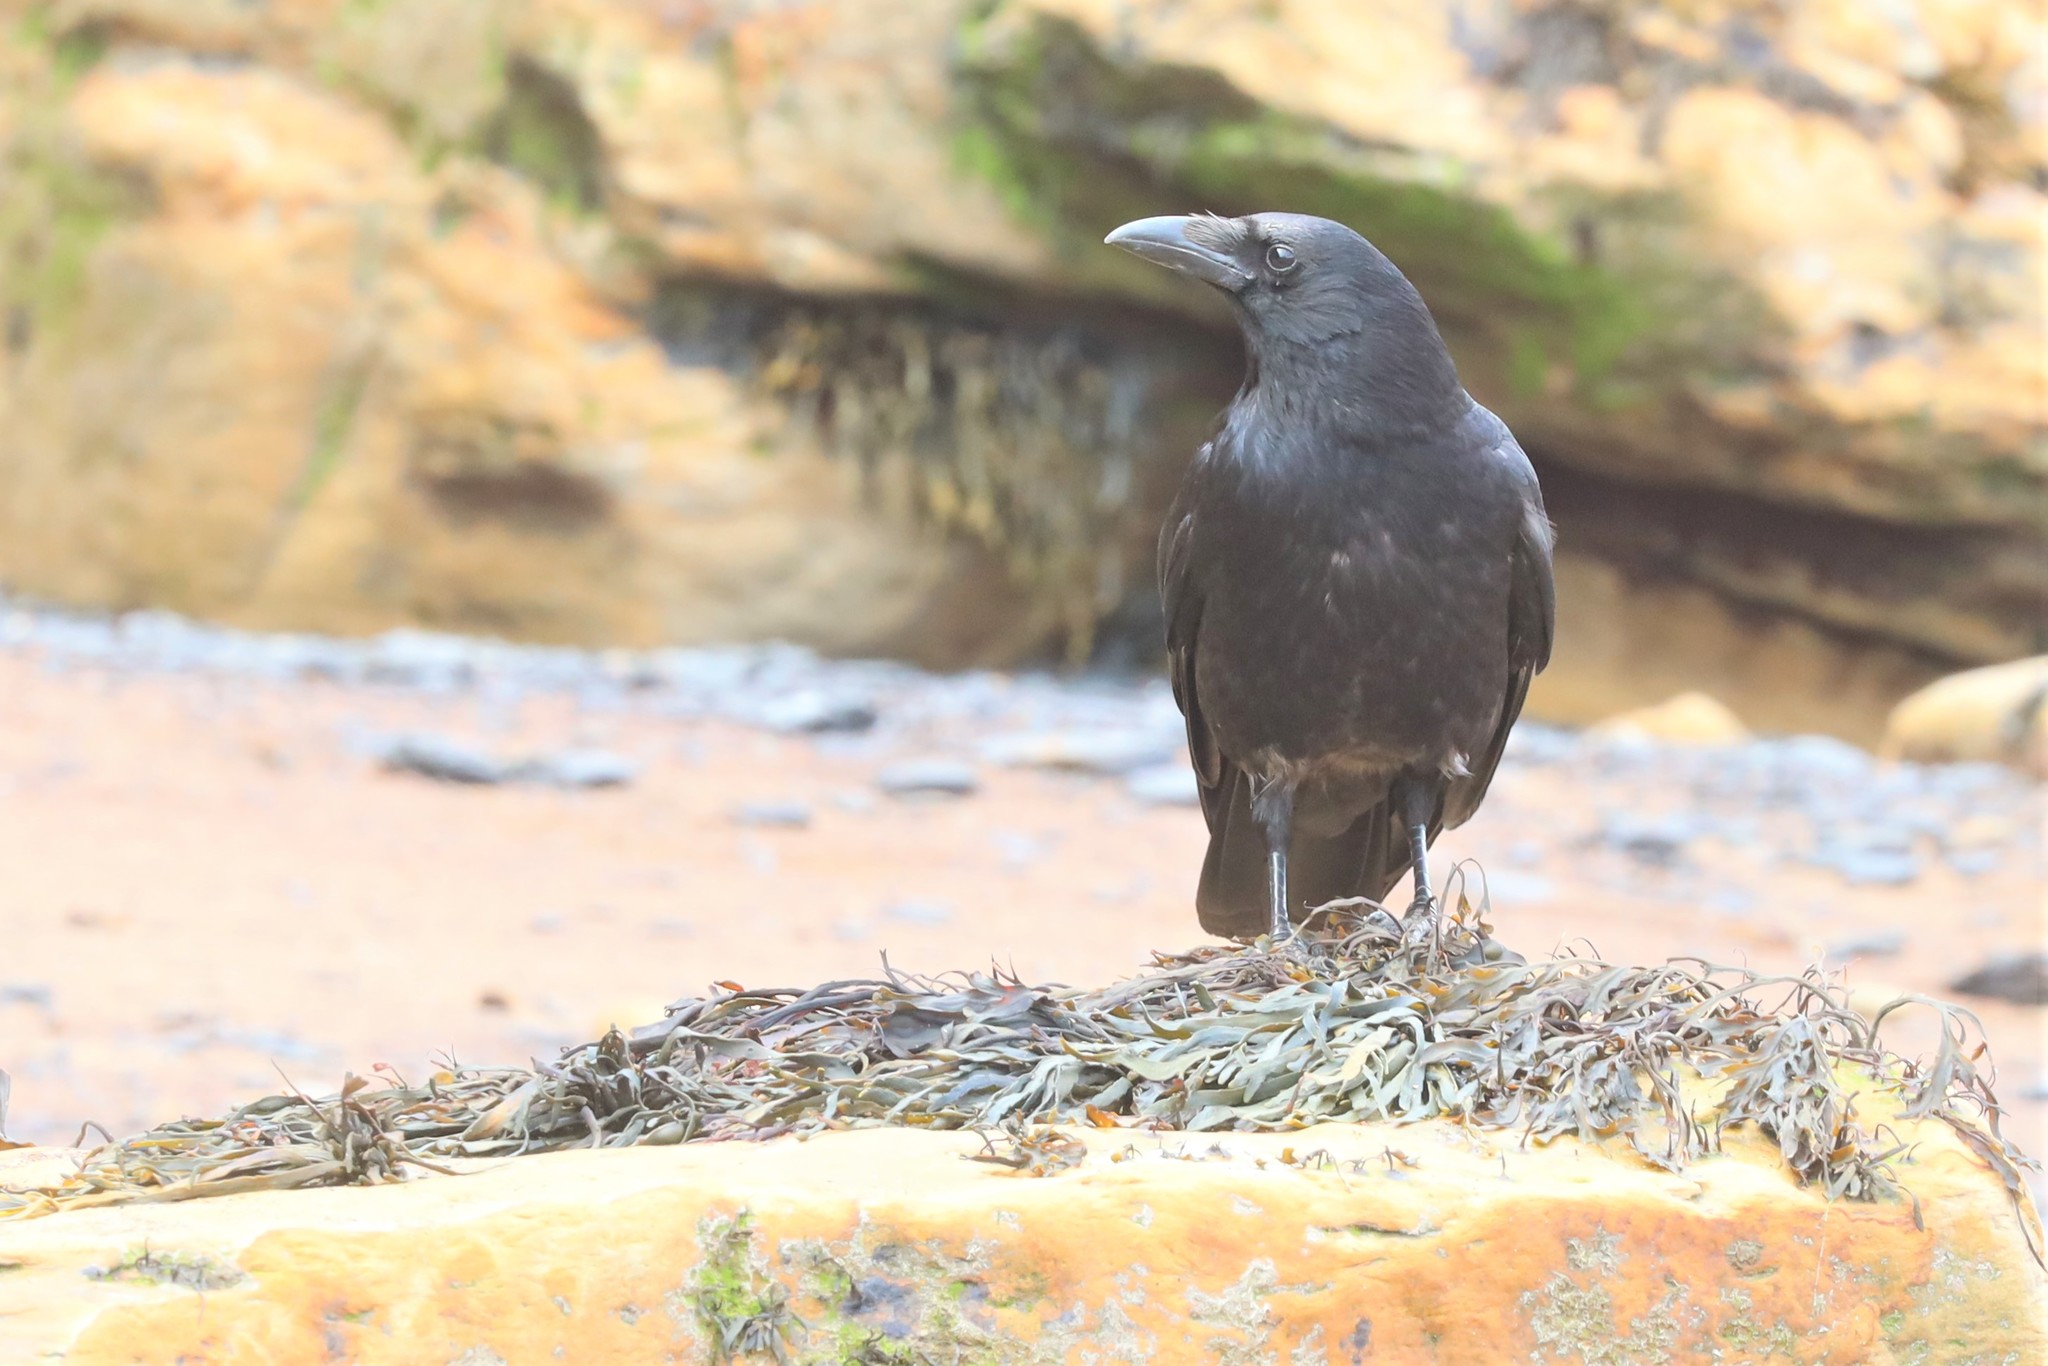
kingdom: Animalia
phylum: Chordata
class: Aves
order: Passeriformes
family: Corvidae
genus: Corvus
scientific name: Corvus corone
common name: Carrion crow
